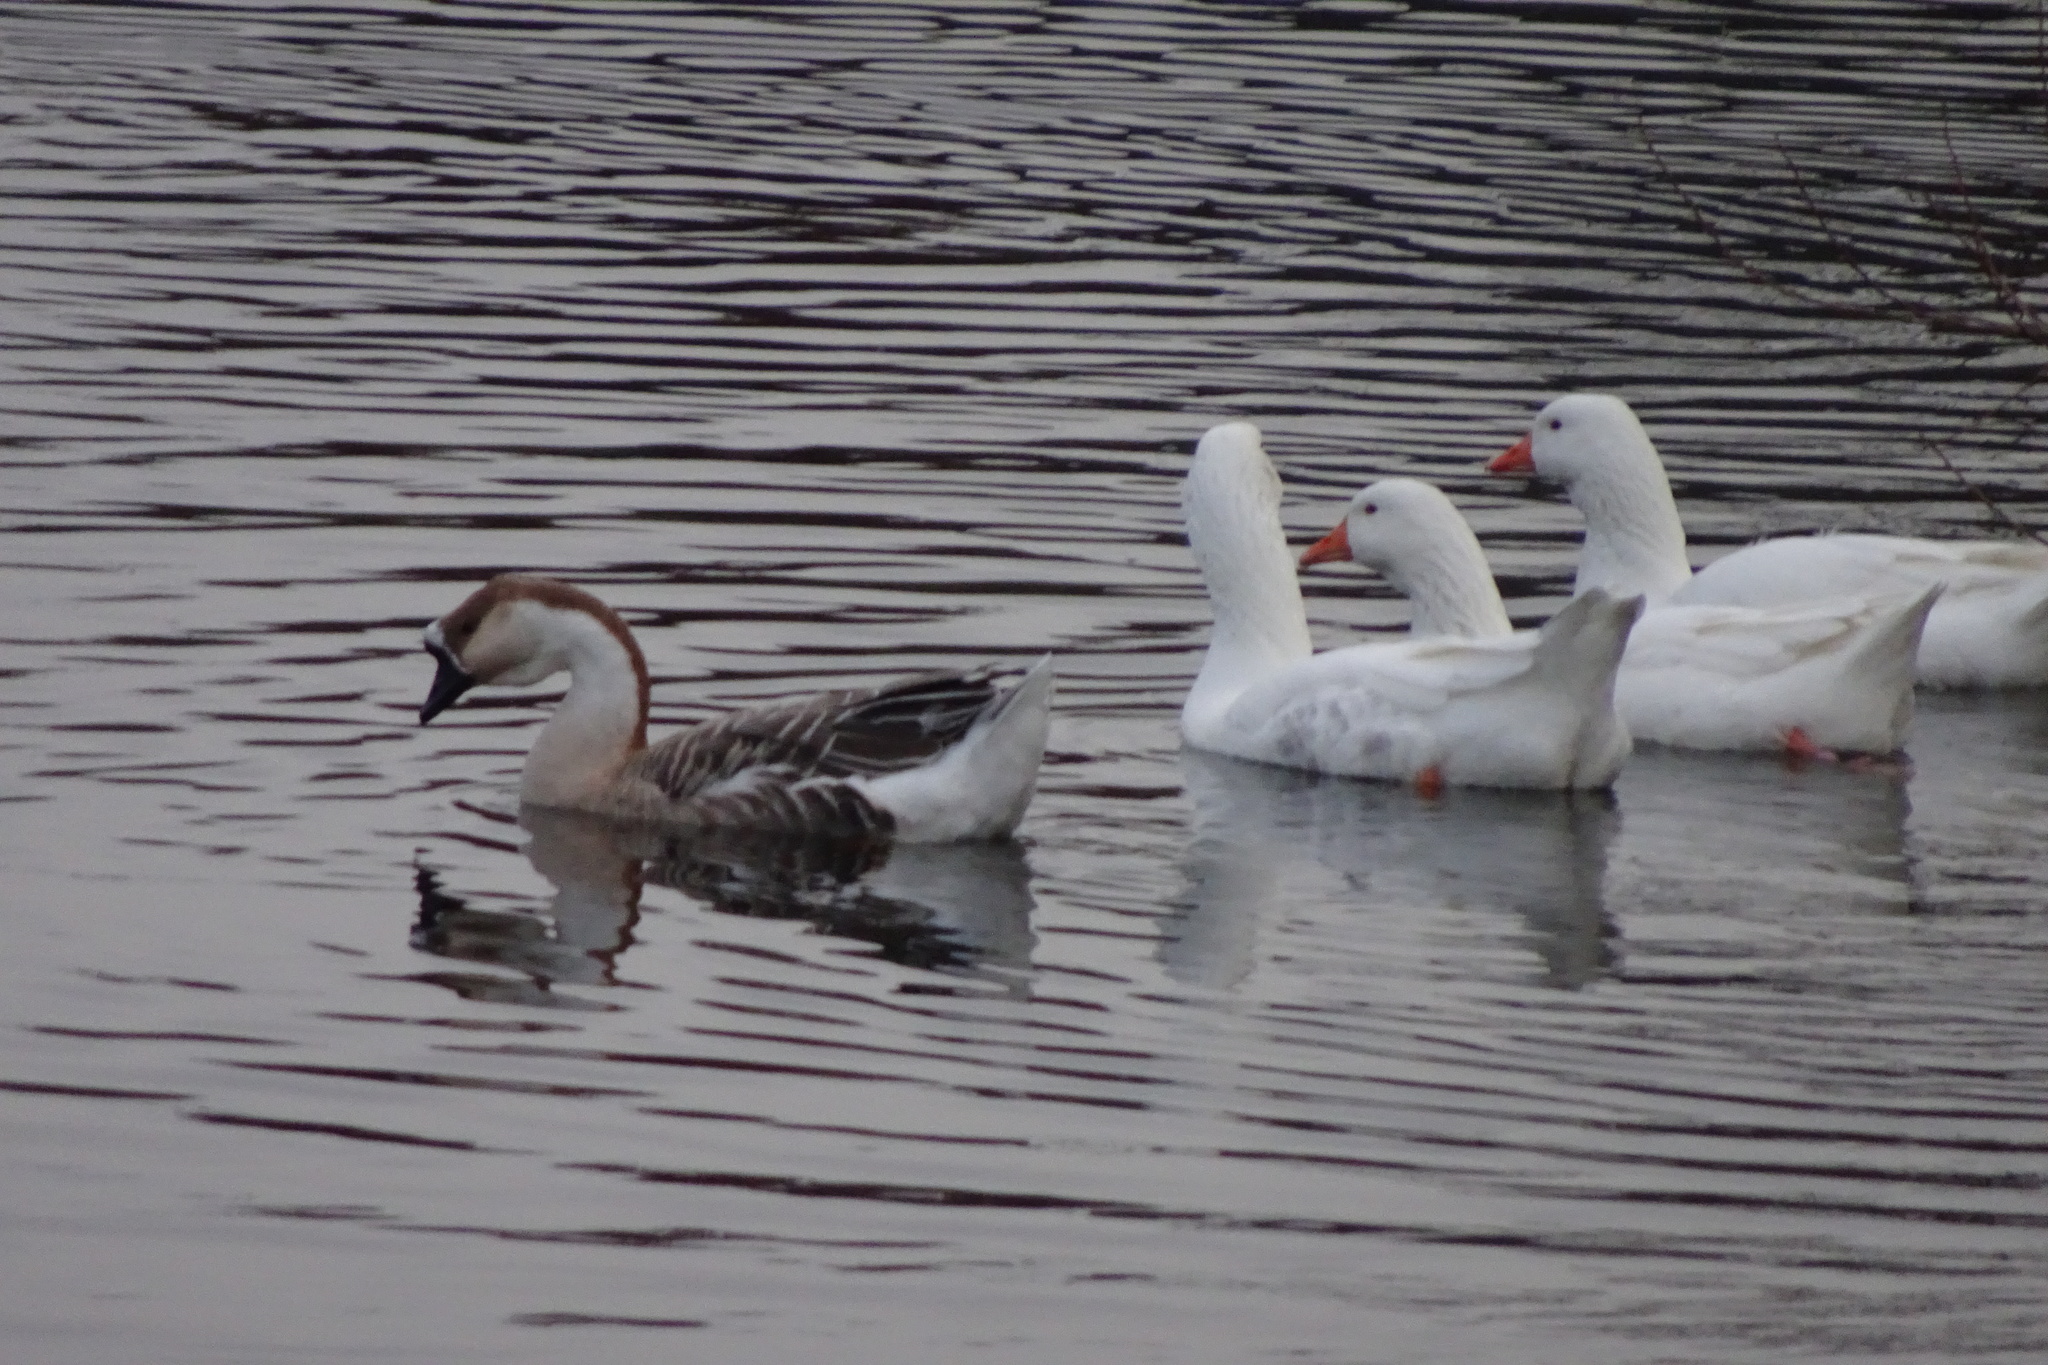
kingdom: Animalia
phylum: Chordata
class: Aves
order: Anseriformes
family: Anatidae
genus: Anser
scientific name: Anser cygnoides
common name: Swan goose
